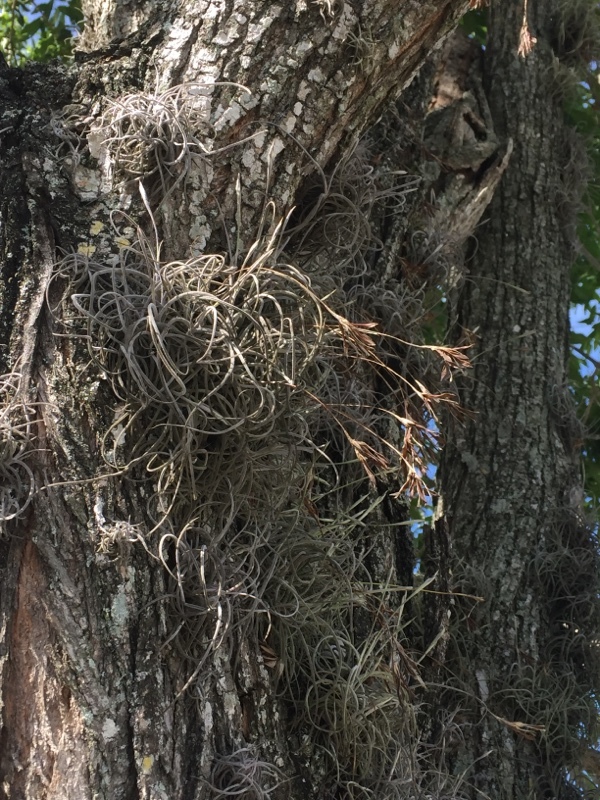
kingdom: Plantae
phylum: Tracheophyta
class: Liliopsida
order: Poales
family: Bromeliaceae
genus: Tillandsia
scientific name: Tillandsia recurvata
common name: Small ballmoss
